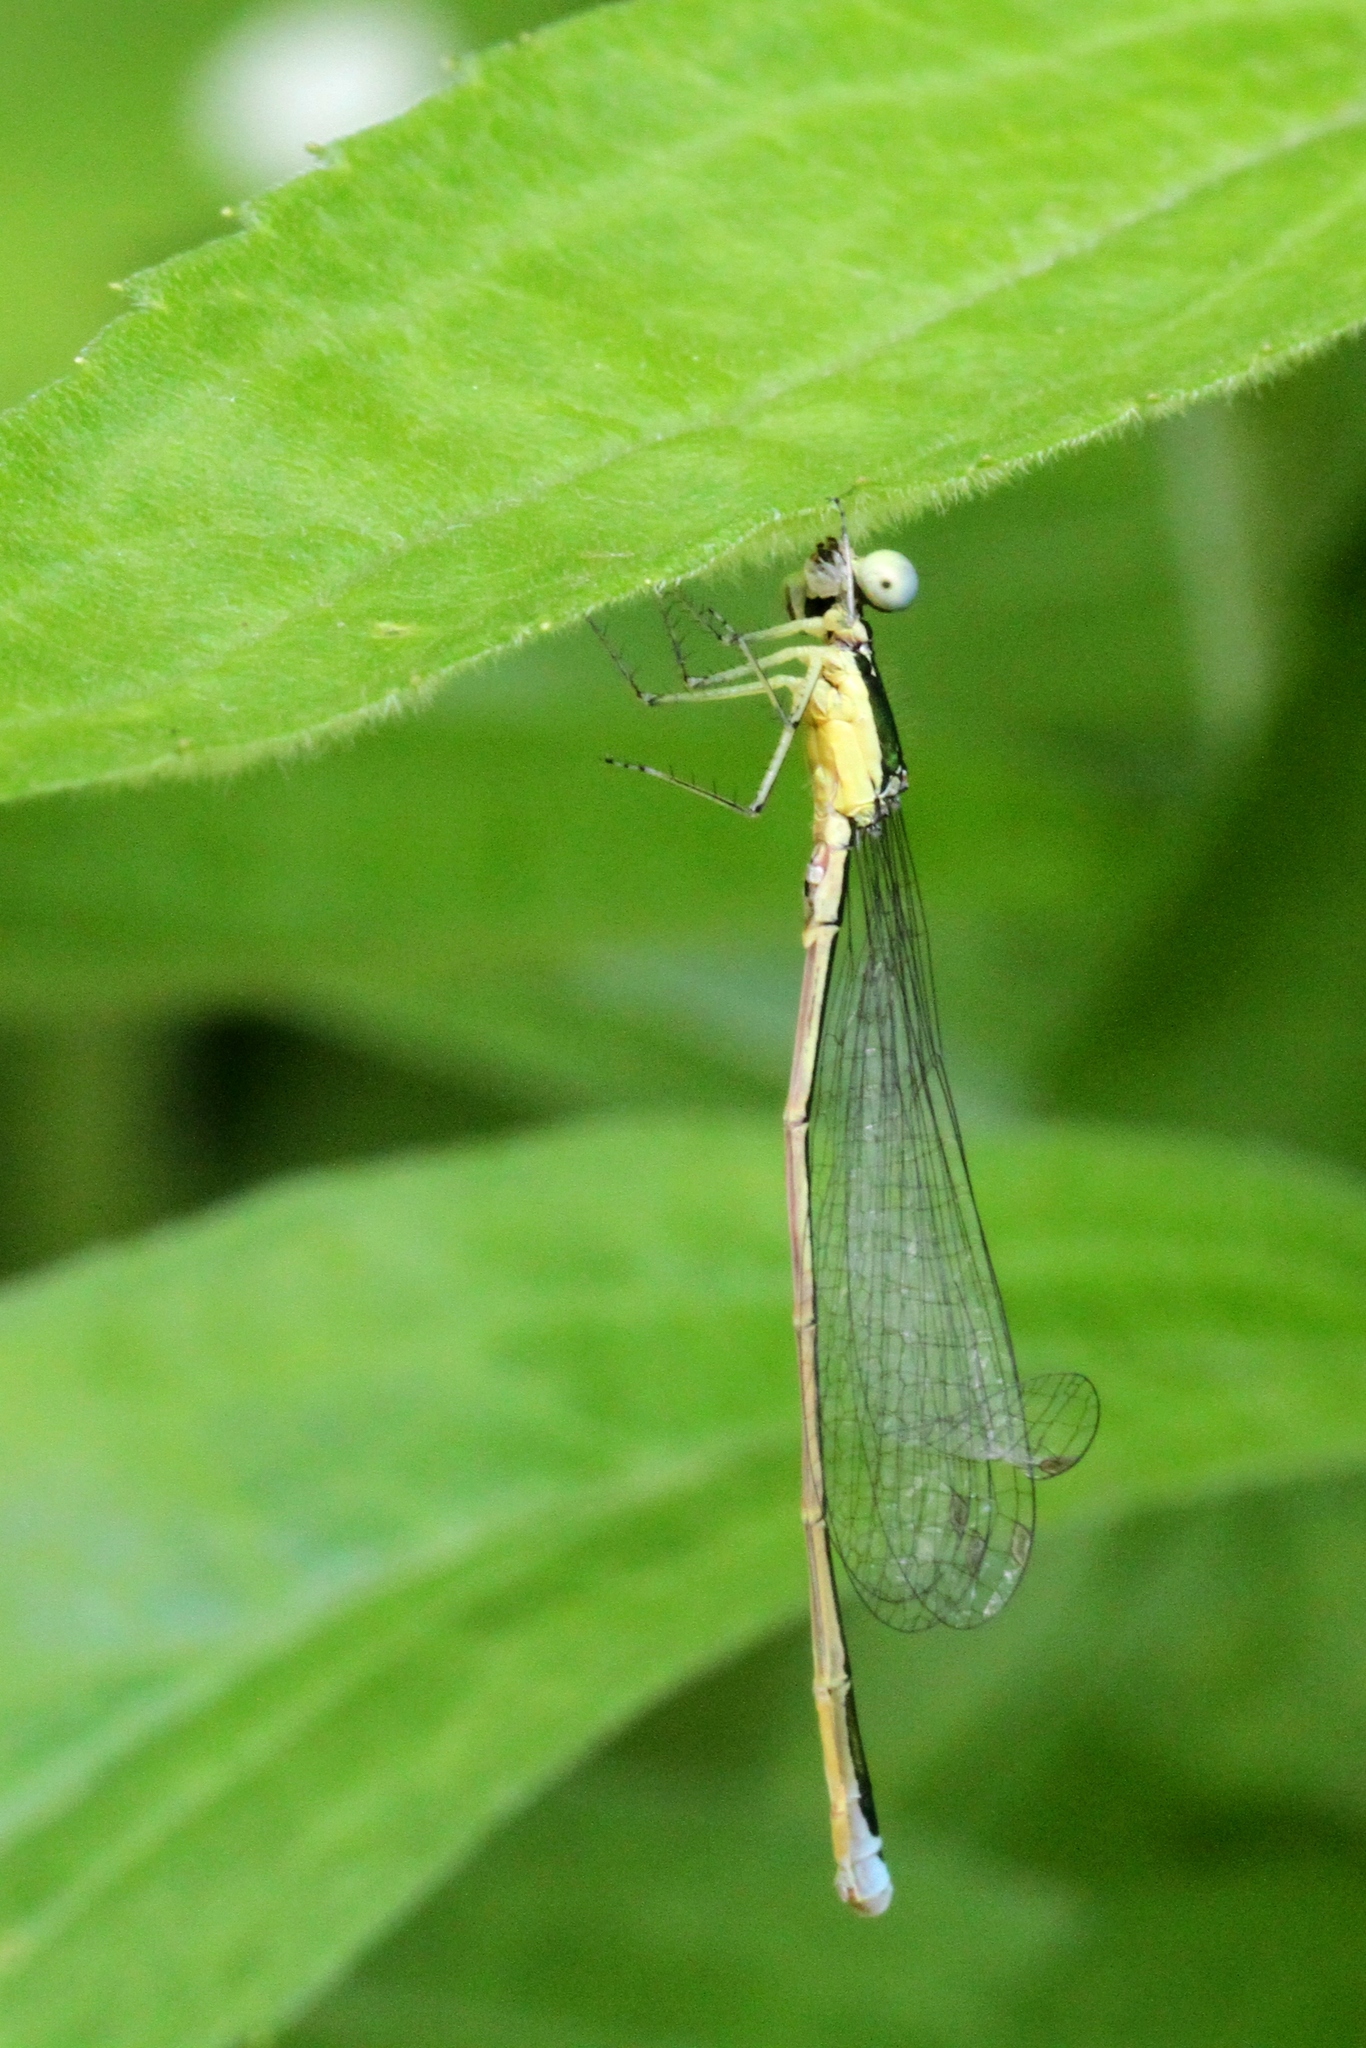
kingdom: Animalia
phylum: Arthropoda
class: Insecta
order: Odonata
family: Coenagrionidae
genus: Nehalennia
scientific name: Nehalennia irene
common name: Sedge sprite
